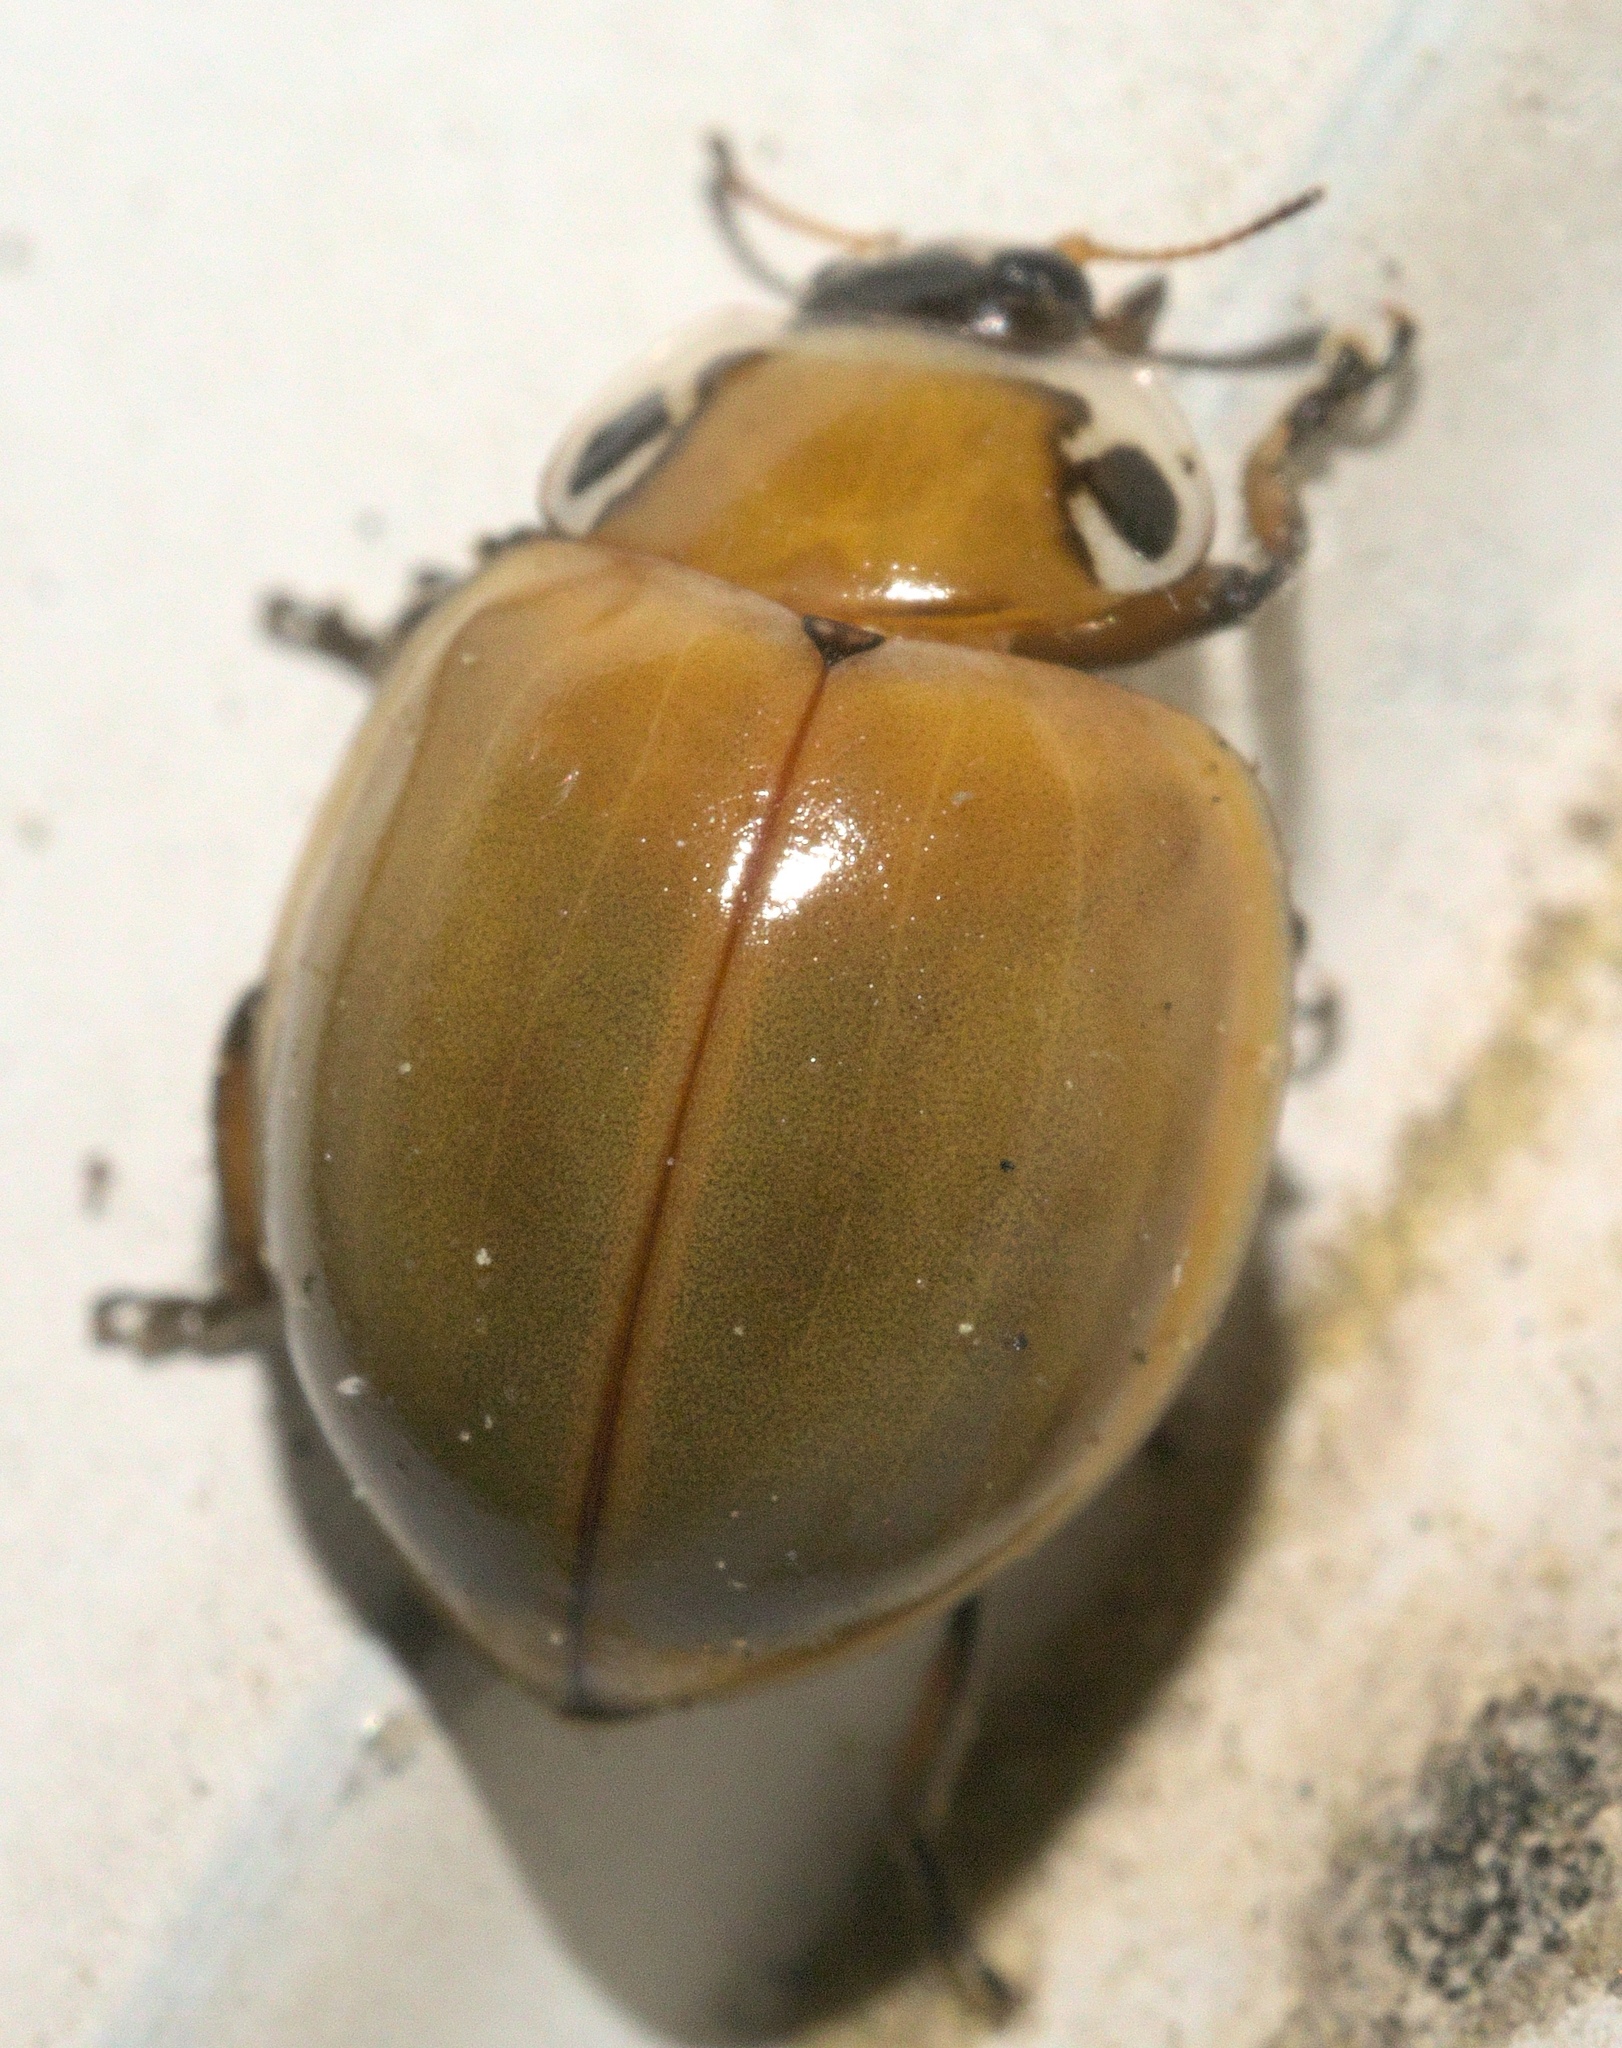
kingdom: Animalia
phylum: Arthropoda
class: Insecta
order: Coleoptera
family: Coccinellidae
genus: Myzia
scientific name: Myzia pullata
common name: Streaked lady beetle
